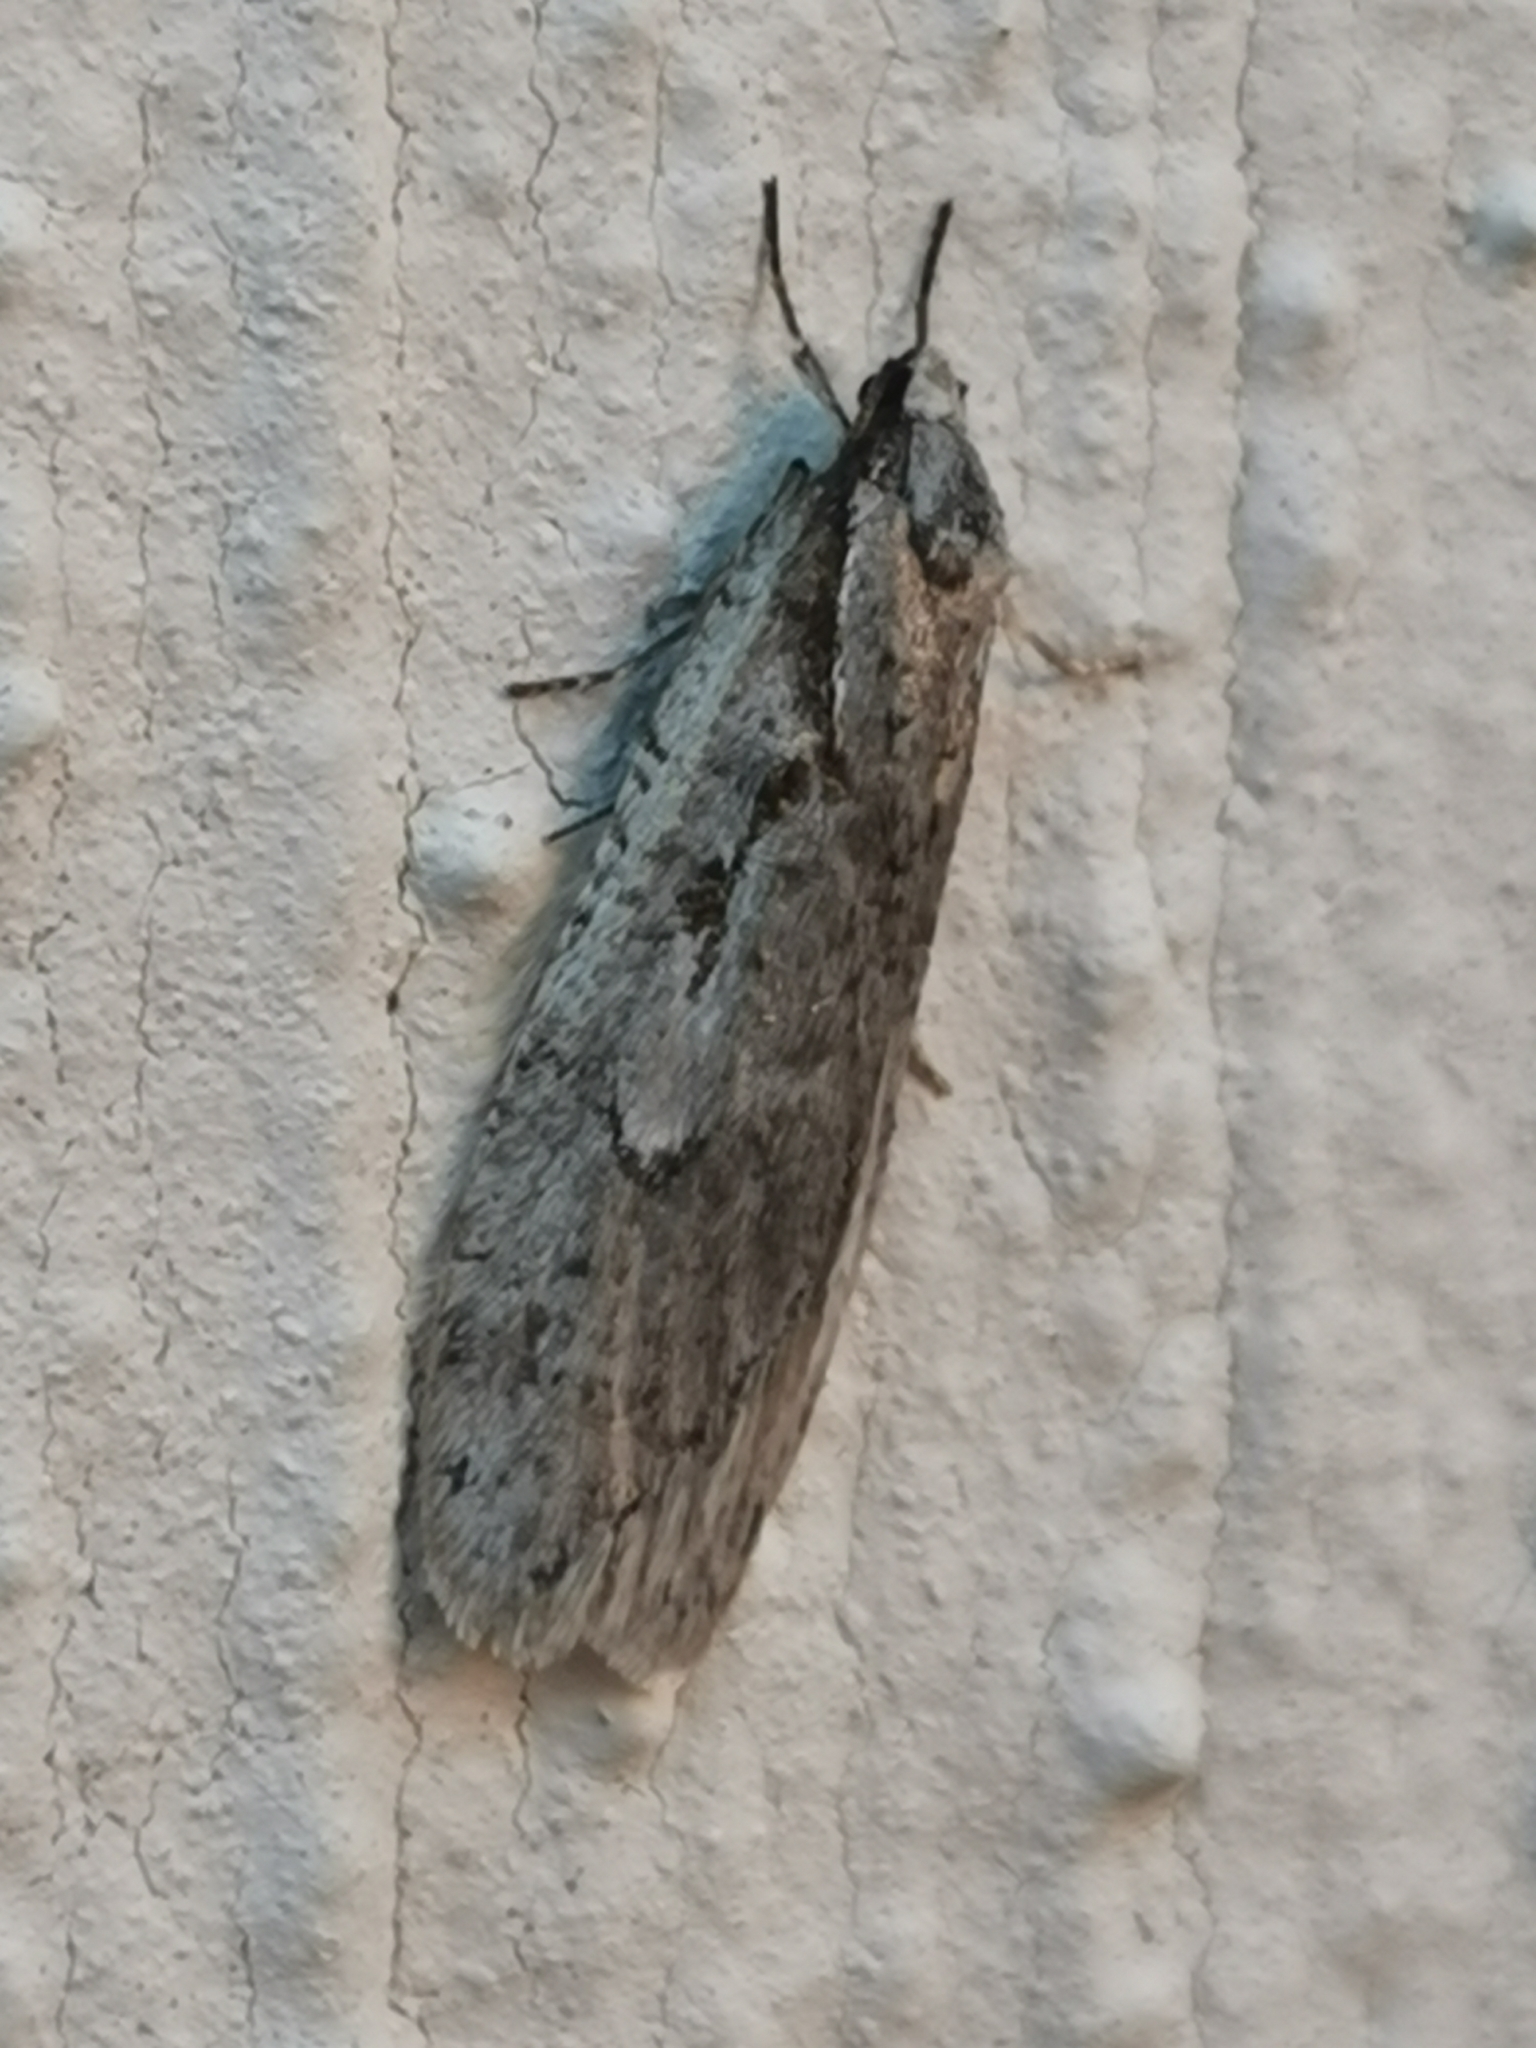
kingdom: Animalia
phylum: Arthropoda
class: Insecta
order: Lepidoptera
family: Depressariidae
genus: Semioscopis
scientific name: Semioscopis avellanella
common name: Early flat-body
